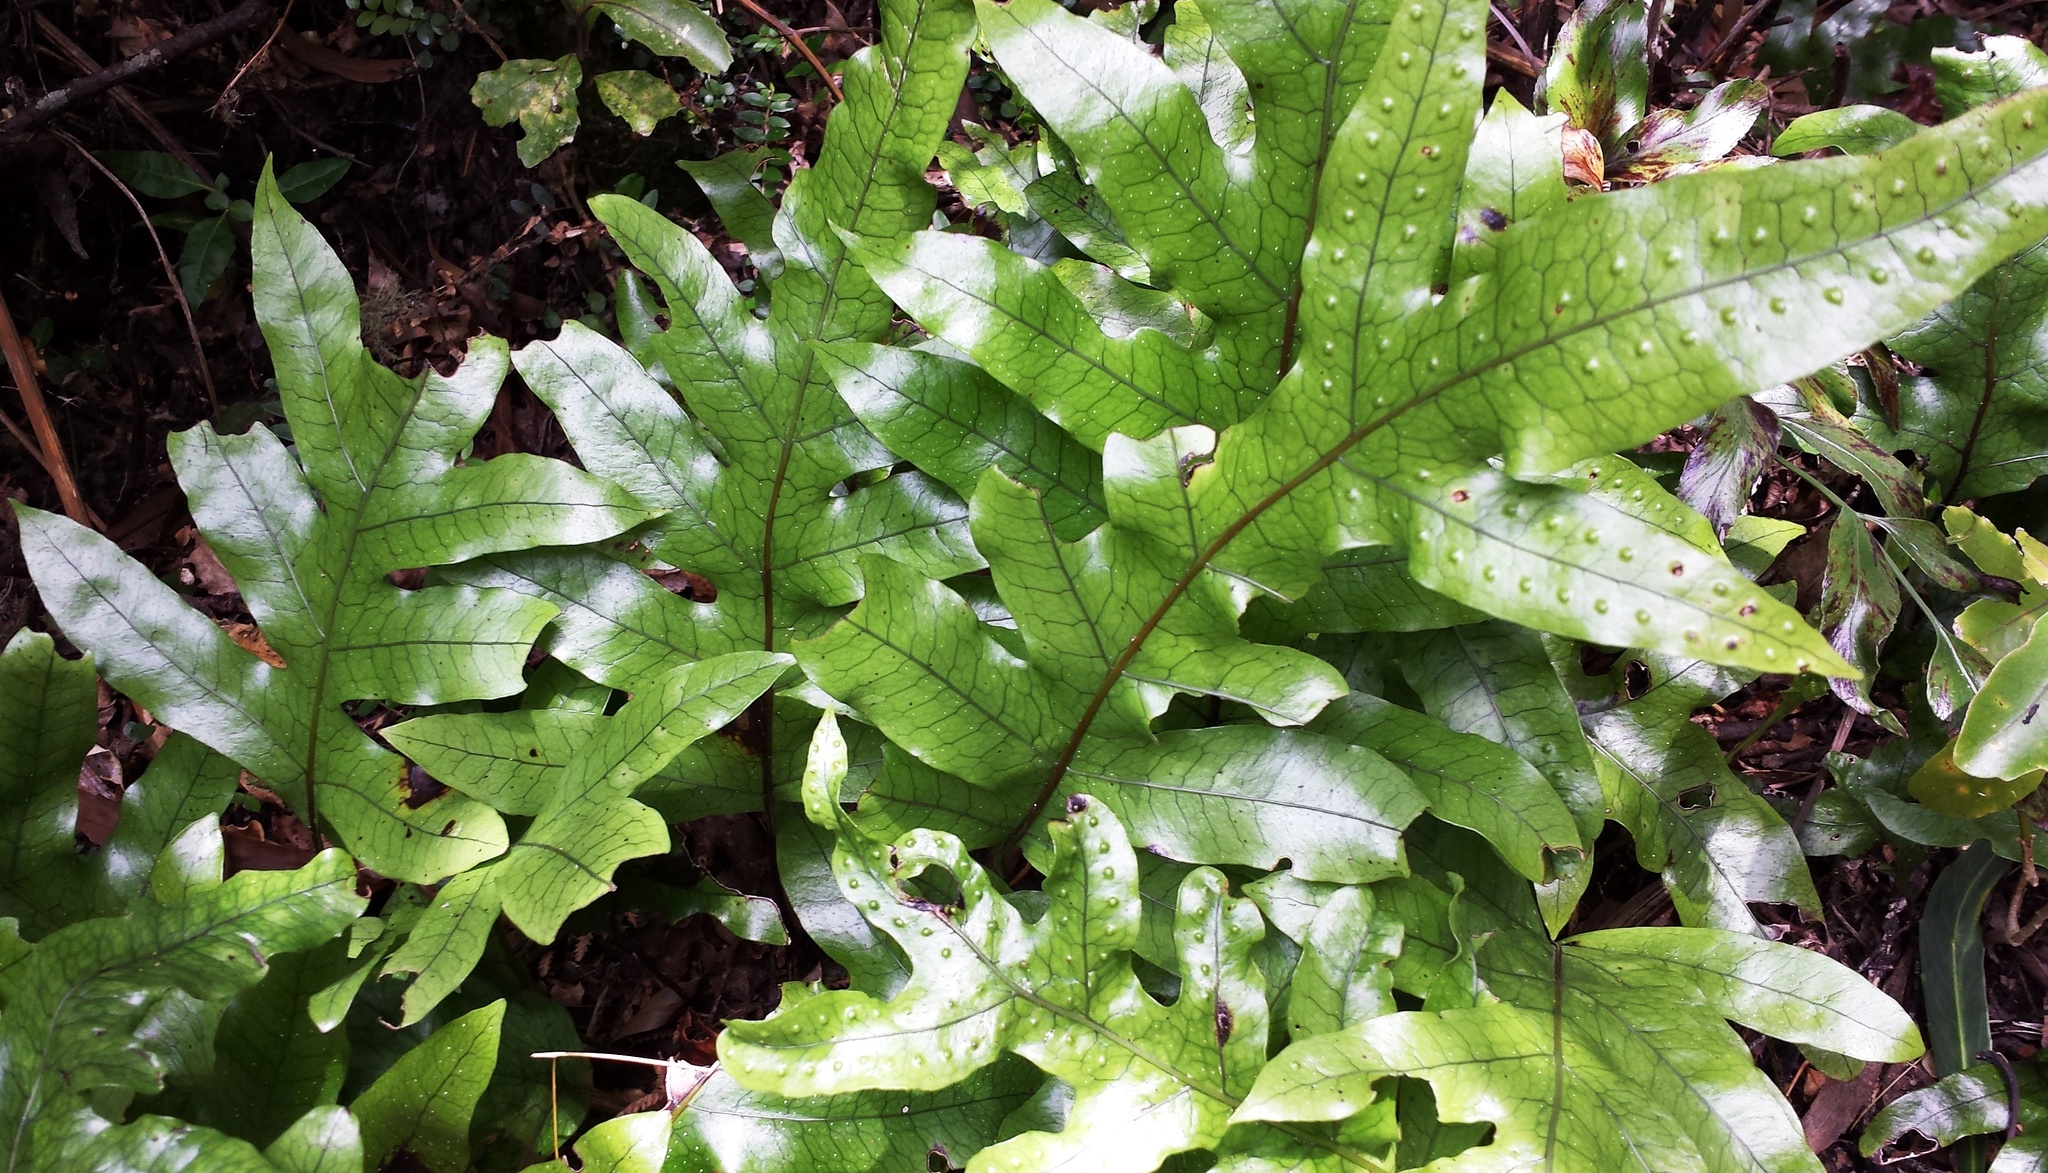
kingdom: Plantae
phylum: Tracheophyta
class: Polypodiopsida
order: Polypodiales
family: Polypodiaceae
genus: Lecanopteris
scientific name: Lecanopteris pustulata
